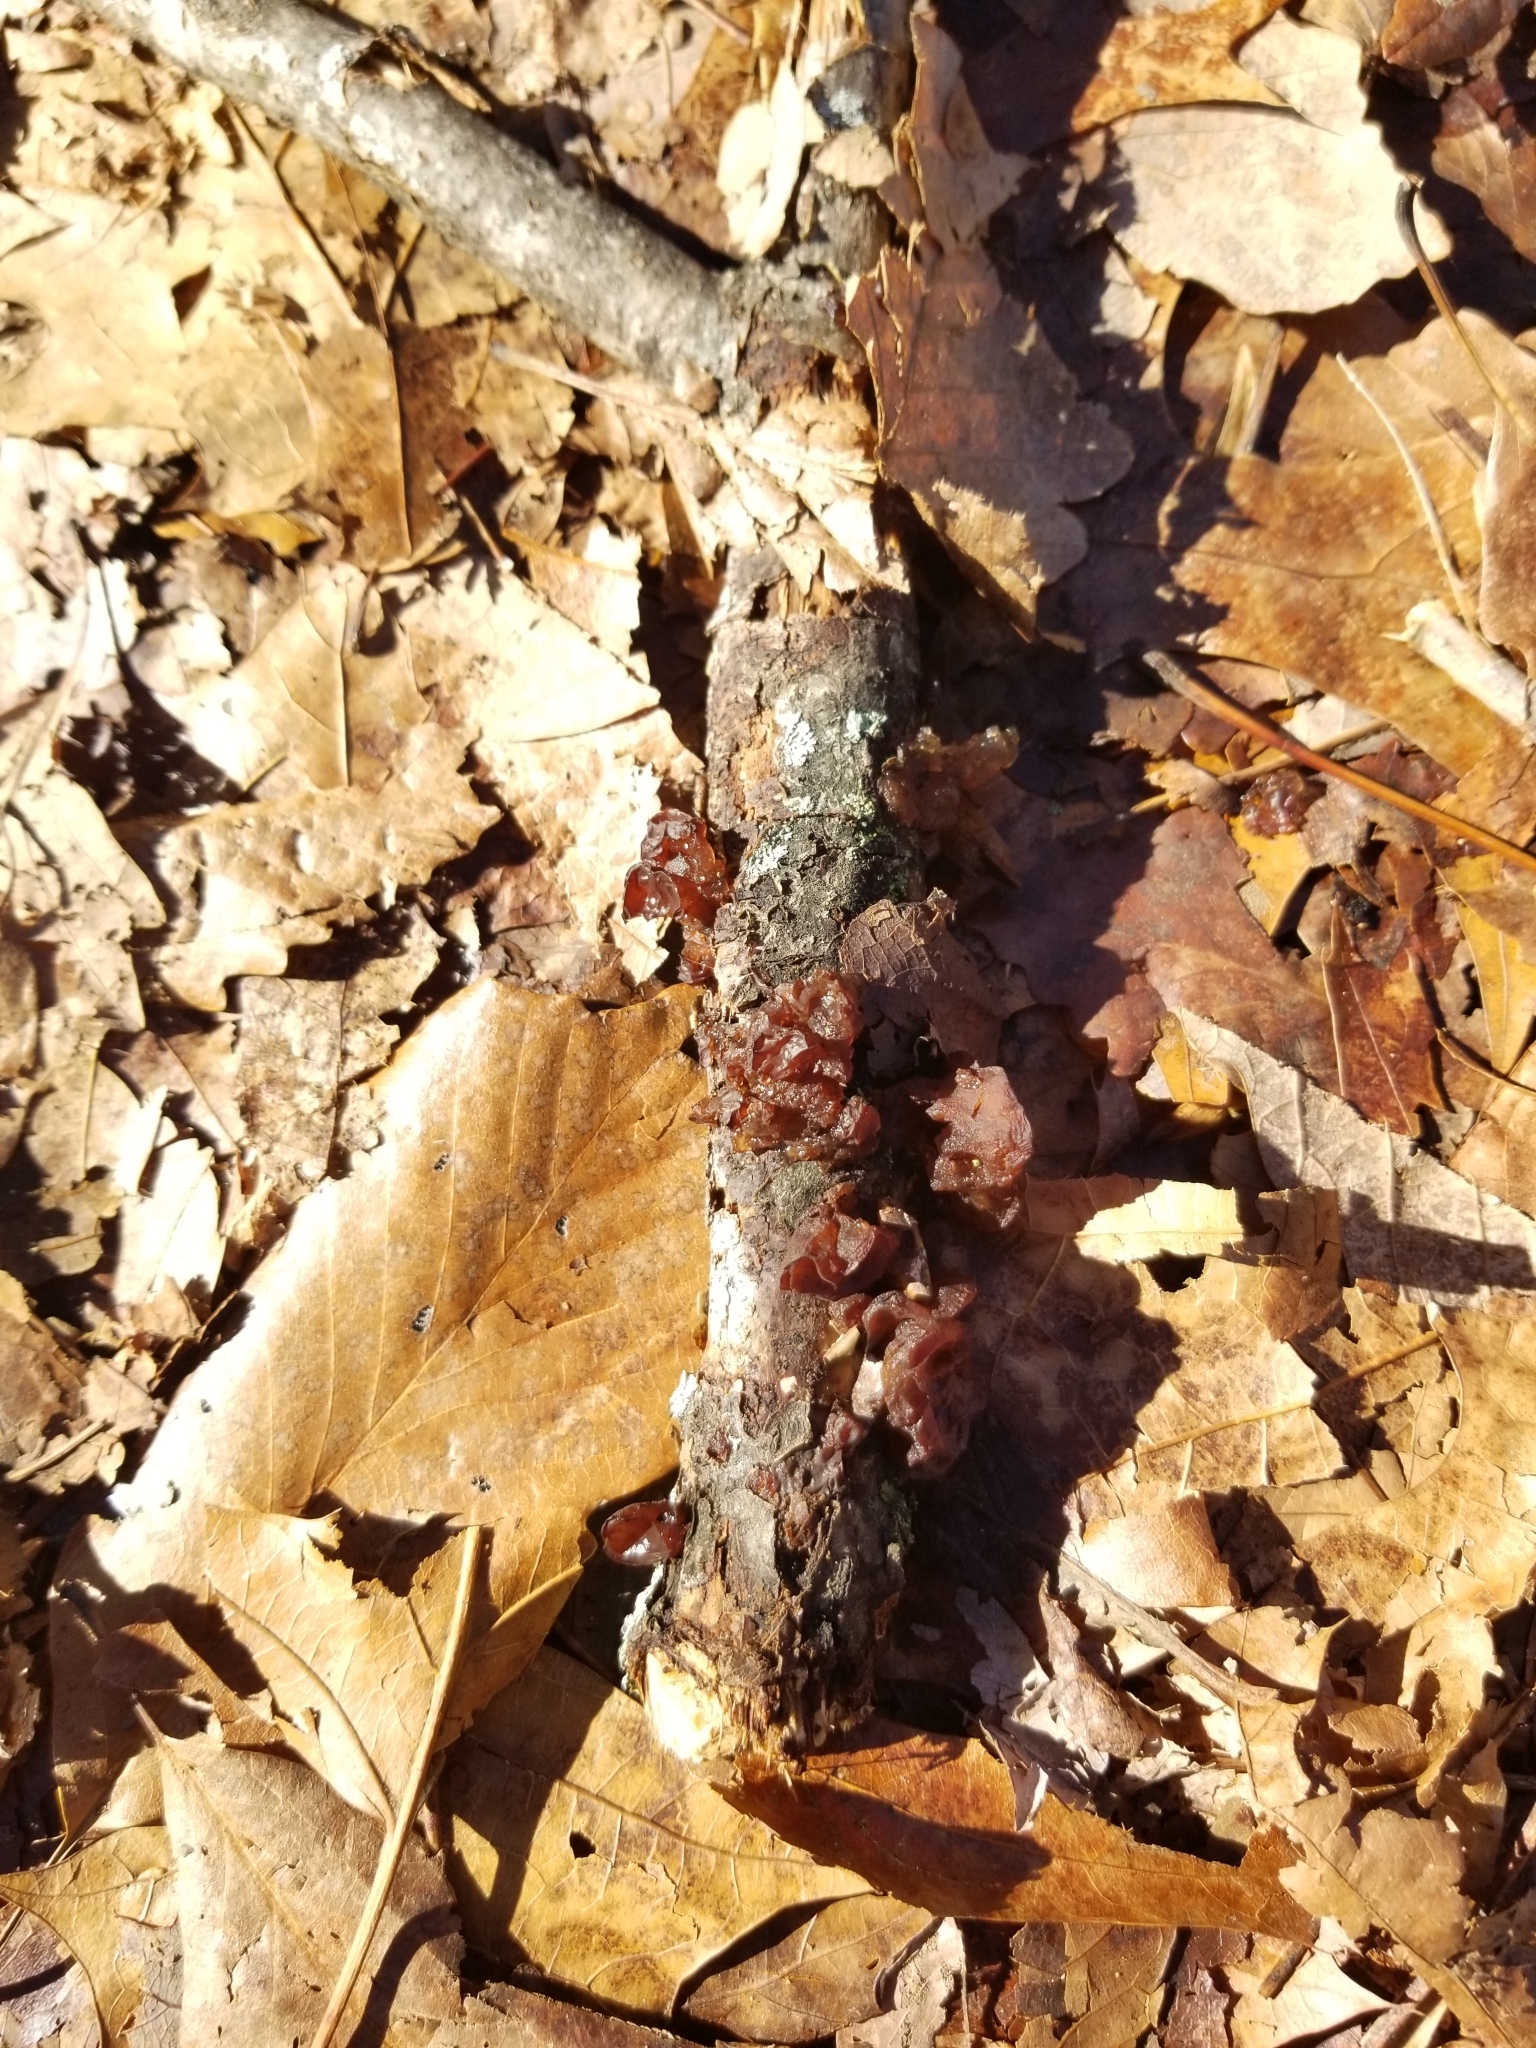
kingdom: Fungi
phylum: Basidiomycota
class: Agaricomycetes
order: Auriculariales
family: Auriculariaceae
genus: Exidia
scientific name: Exidia
